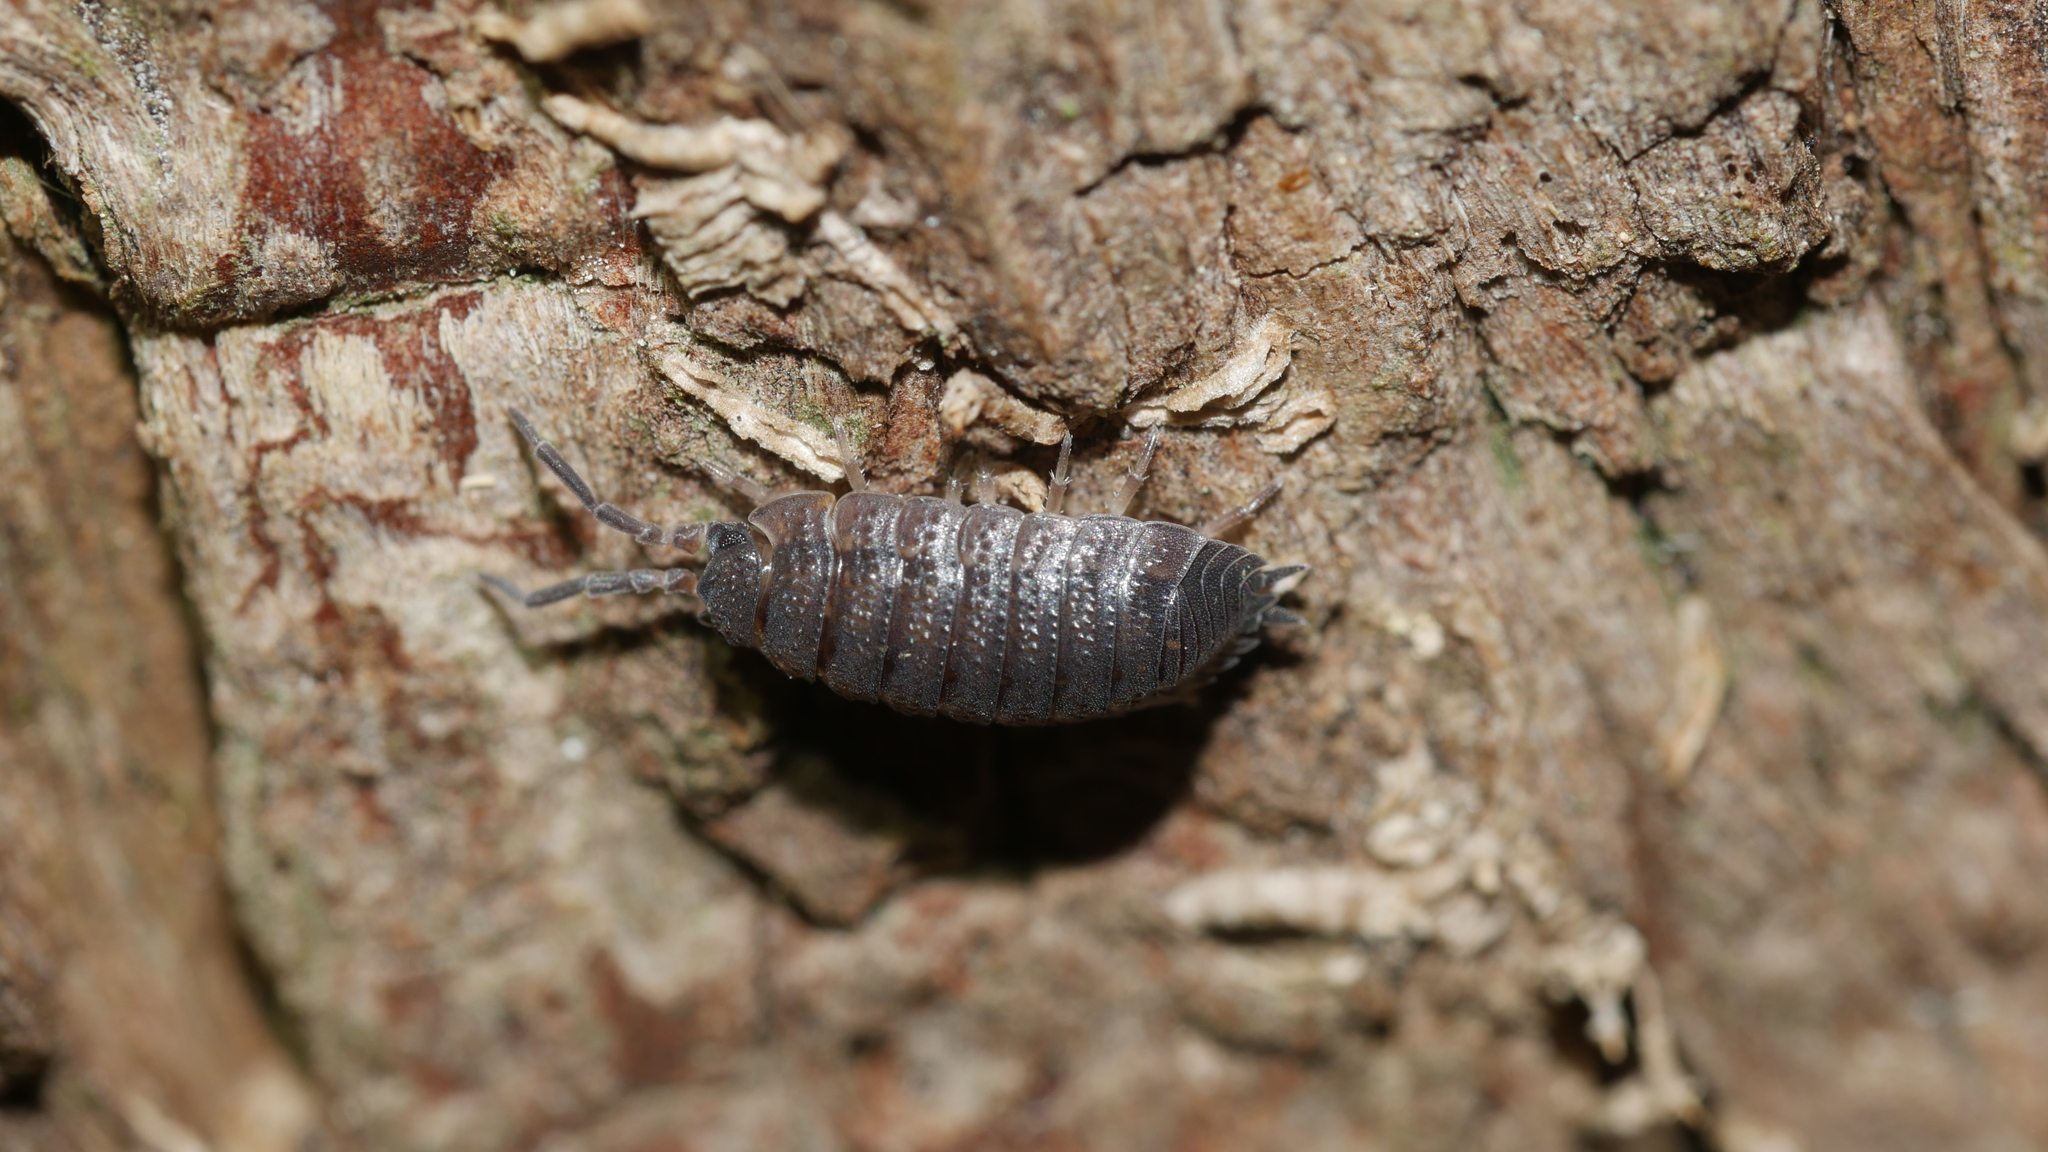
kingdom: Animalia
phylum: Arthropoda
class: Malacostraca
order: Isopoda
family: Porcellionidae
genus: Porcellio
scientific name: Porcellio scaber
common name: Common rough woodlouse
